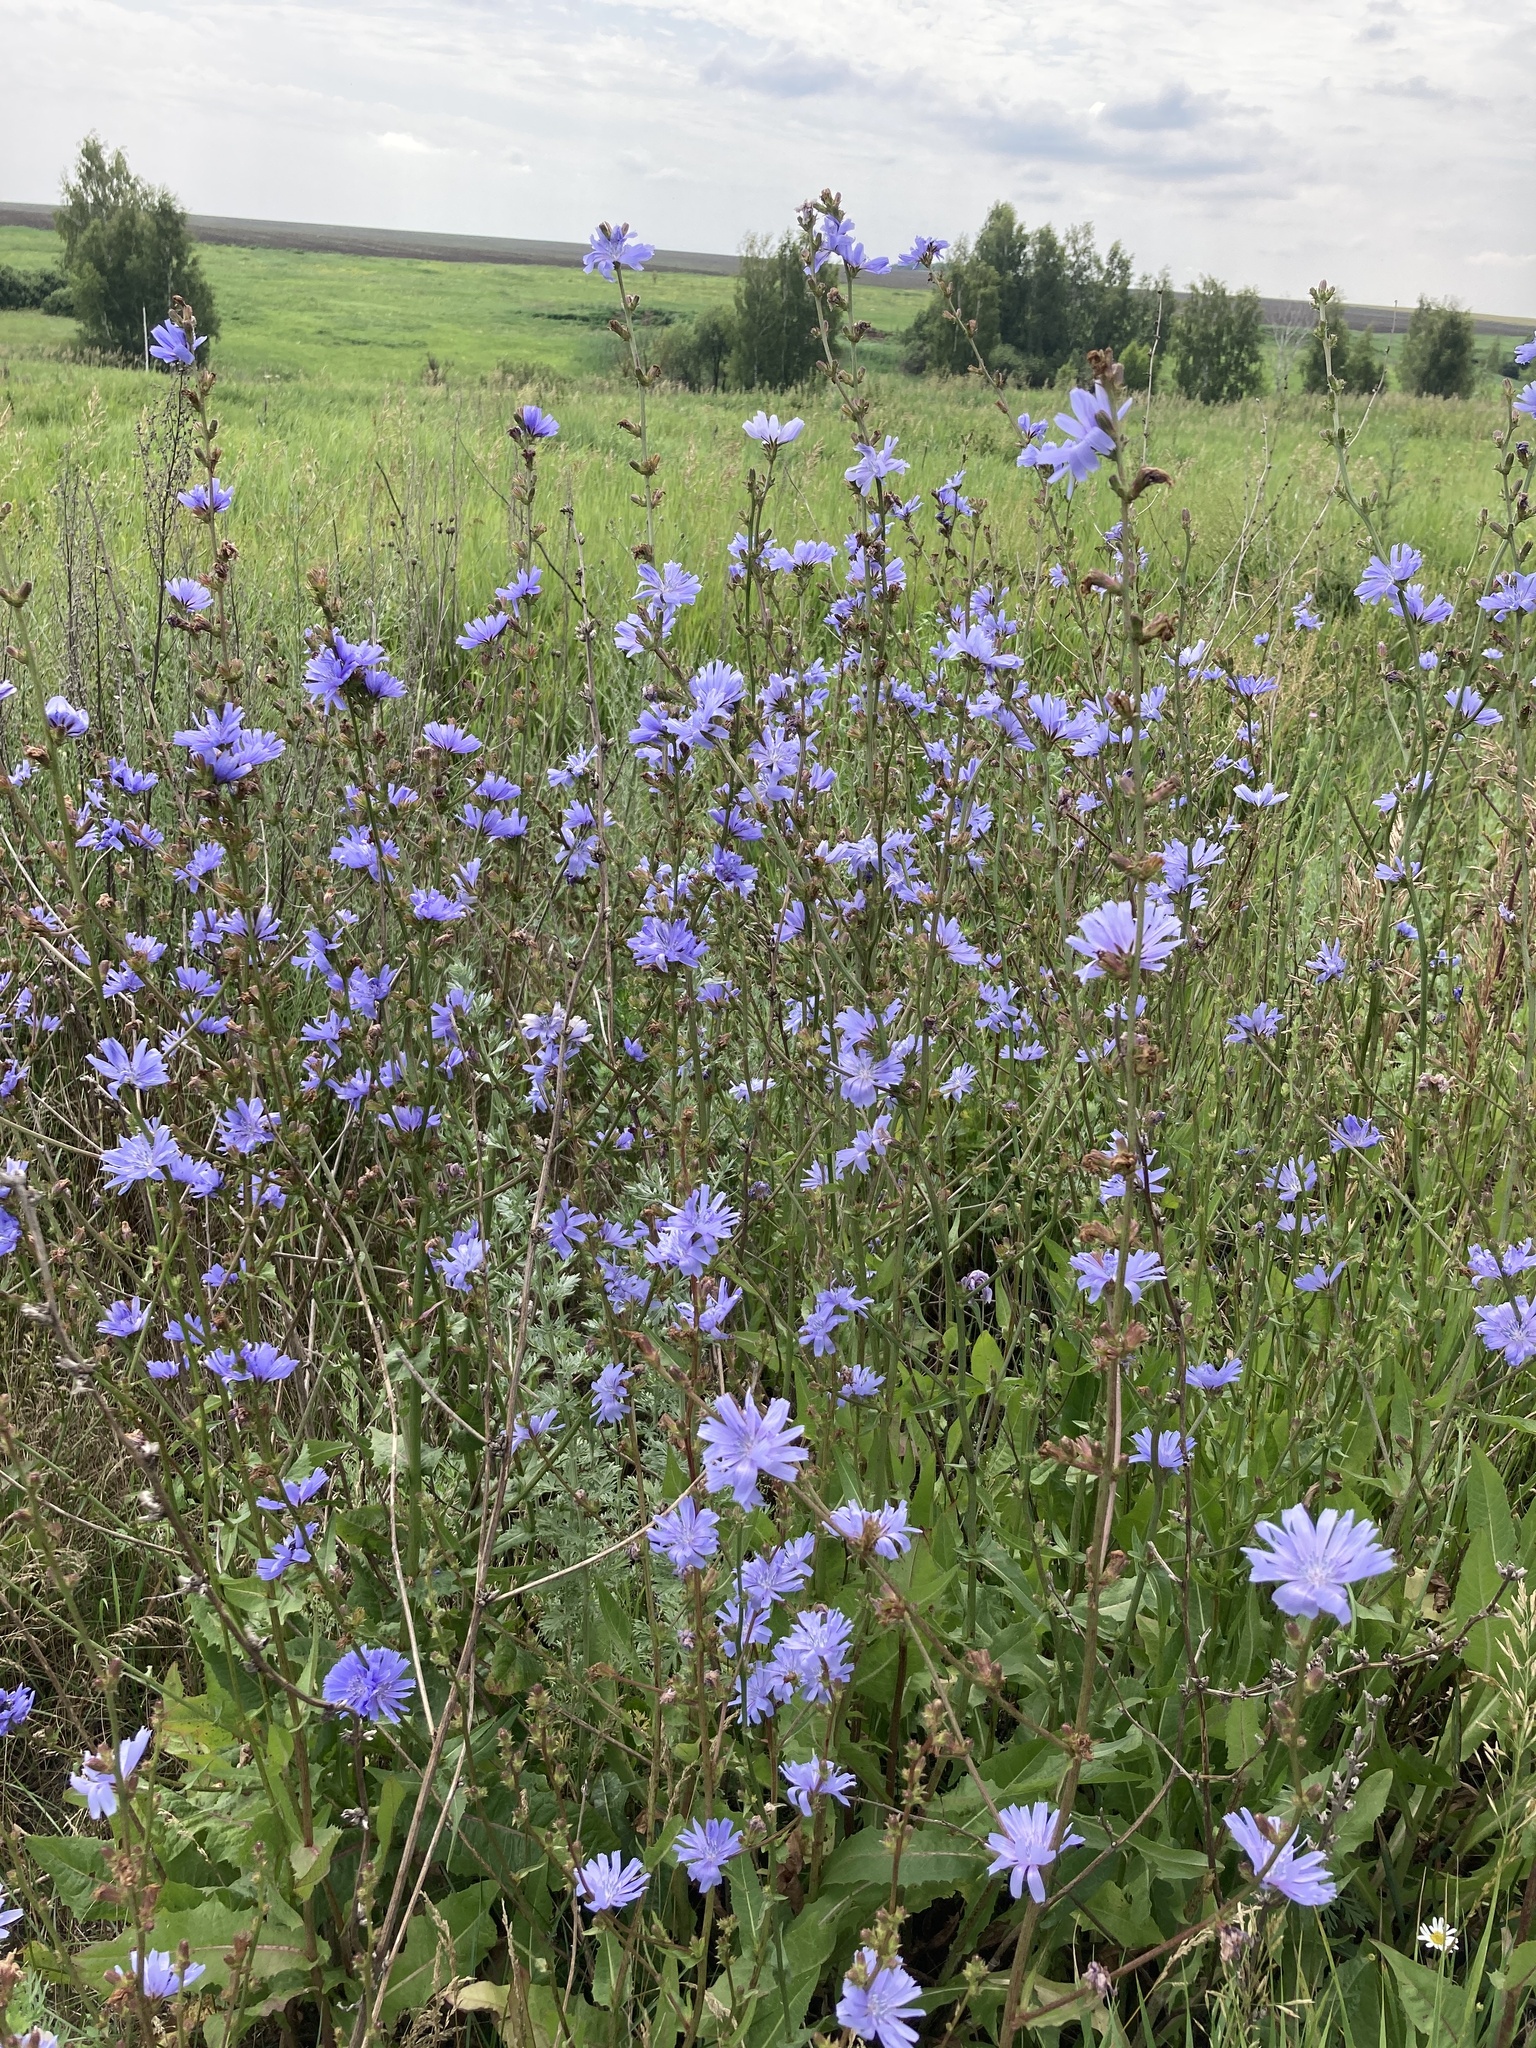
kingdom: Plantae
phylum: Tracheophyta
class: Magnoliopsida
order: Asterales
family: Asteraceae
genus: Cichorium
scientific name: Cichorium intybus
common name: Chicory
